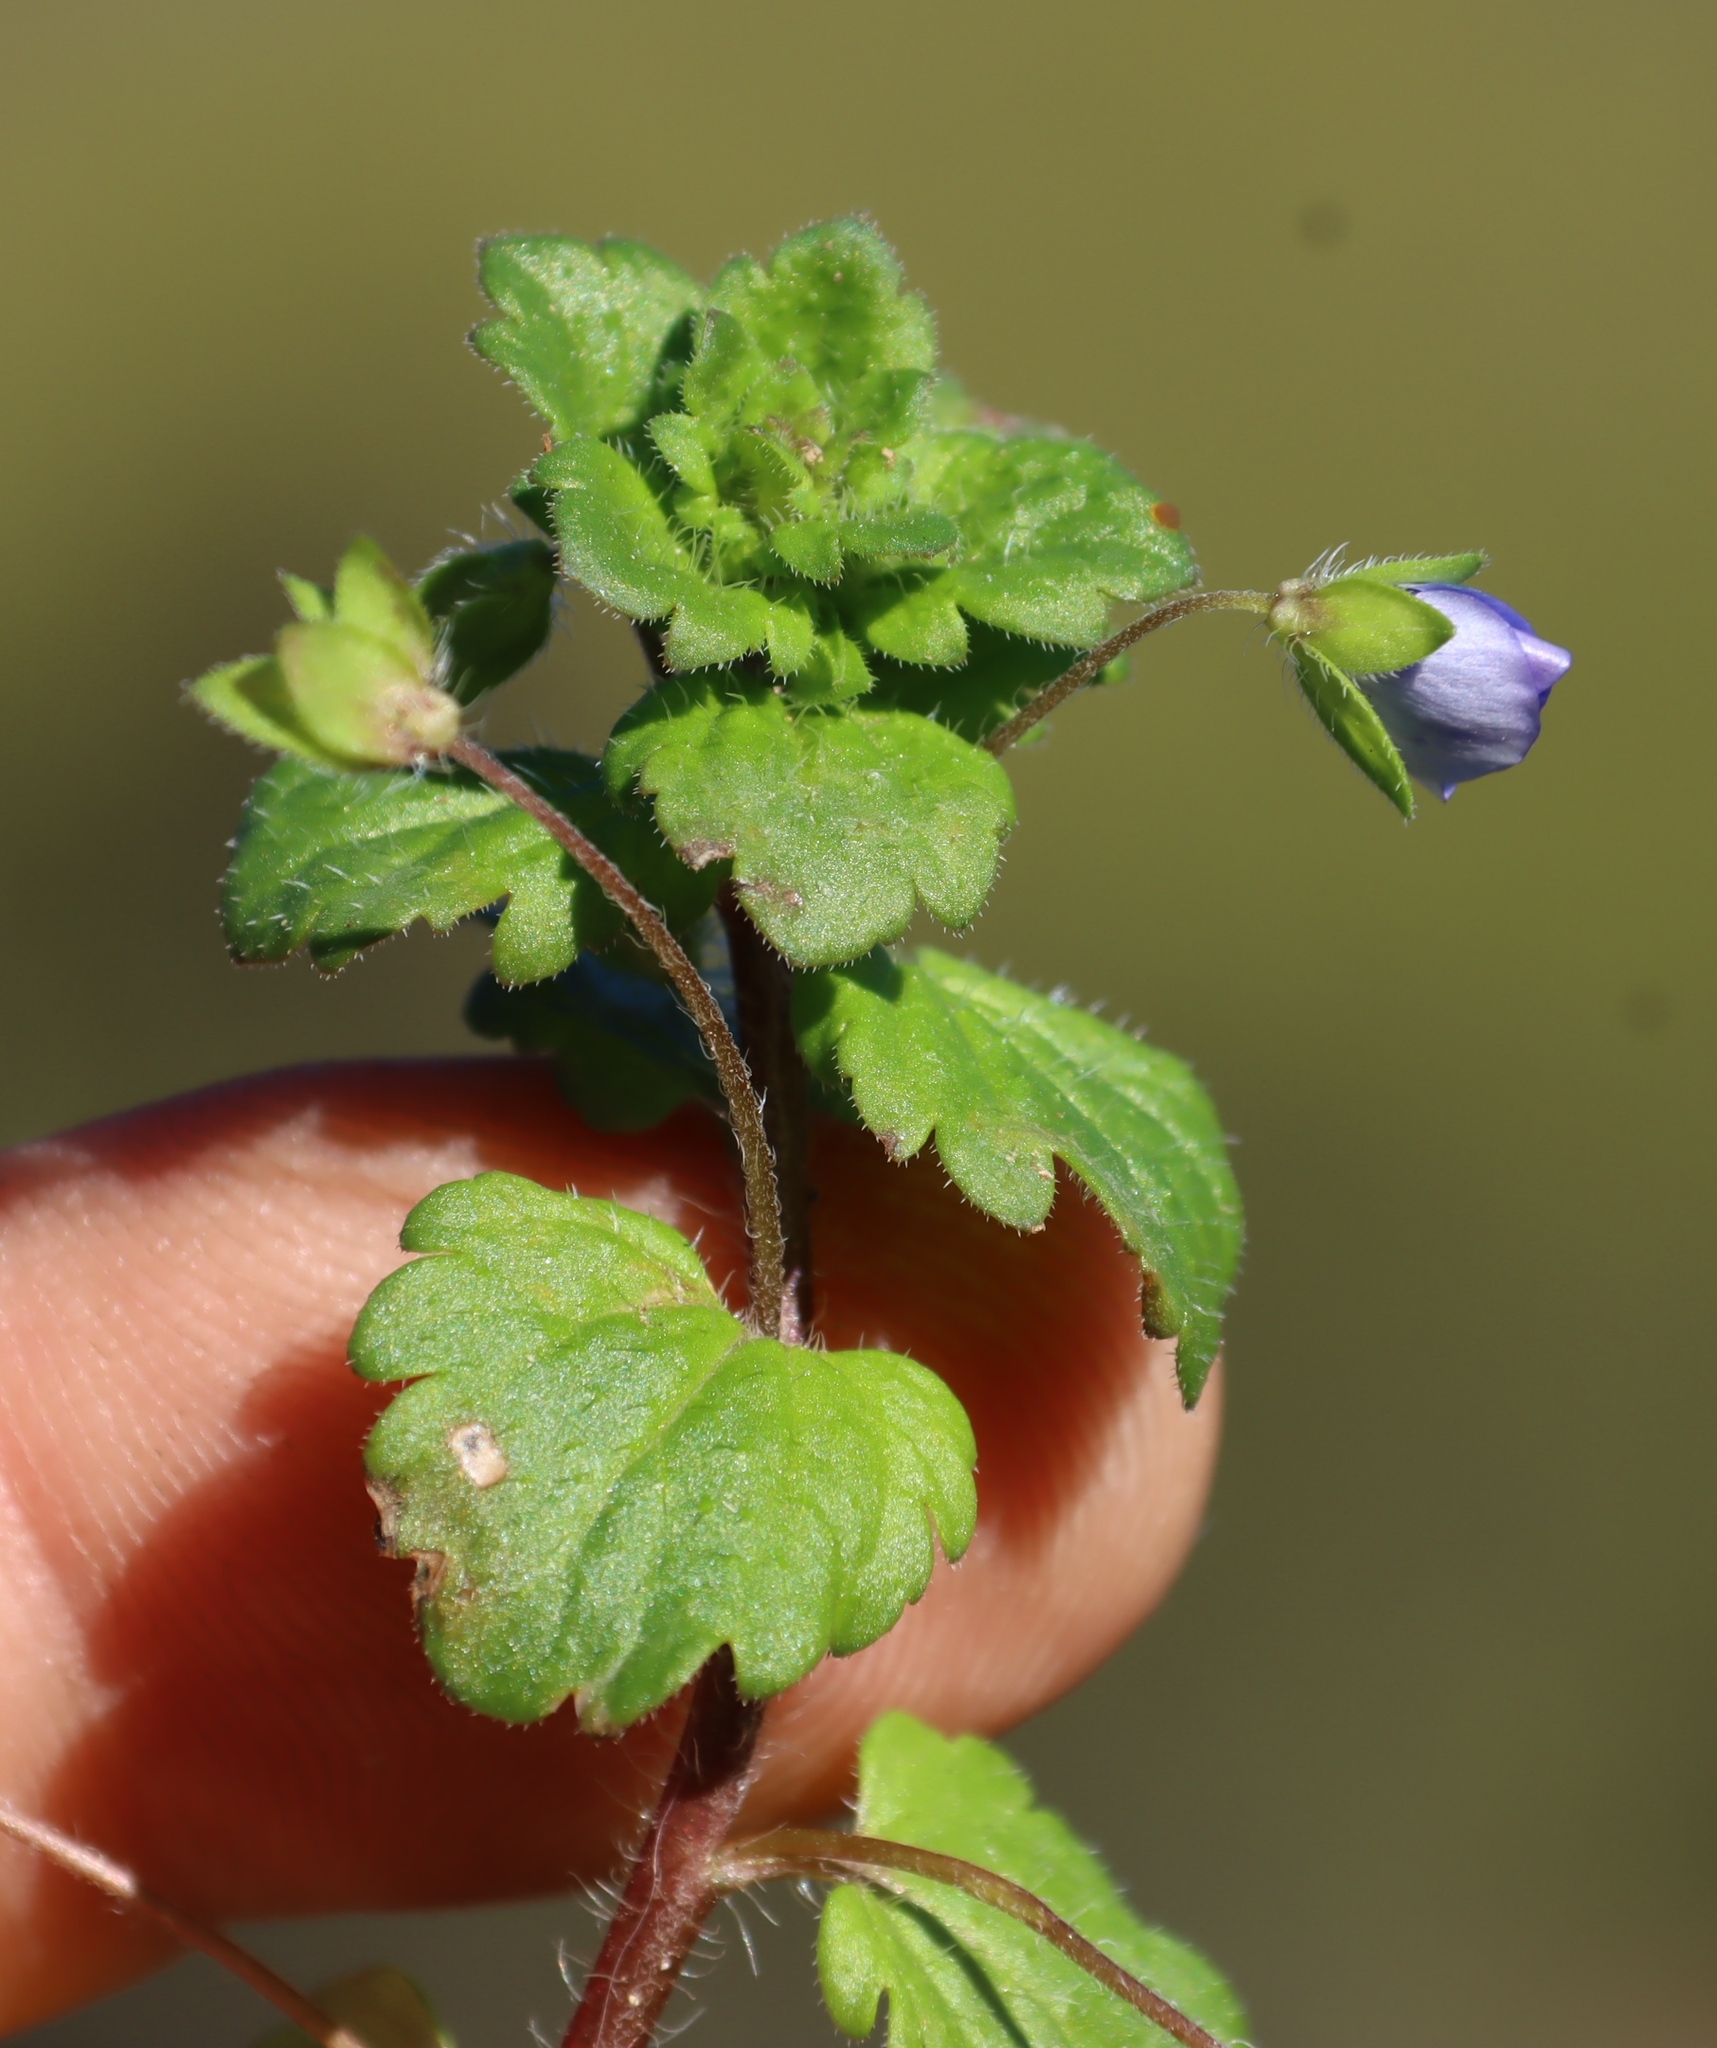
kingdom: Plantae
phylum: Tracheophyta
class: Magnoliopsida
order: Lamiales
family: Plantaginaceae
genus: Veronica
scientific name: Veronica persica
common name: Common field-speedwell
